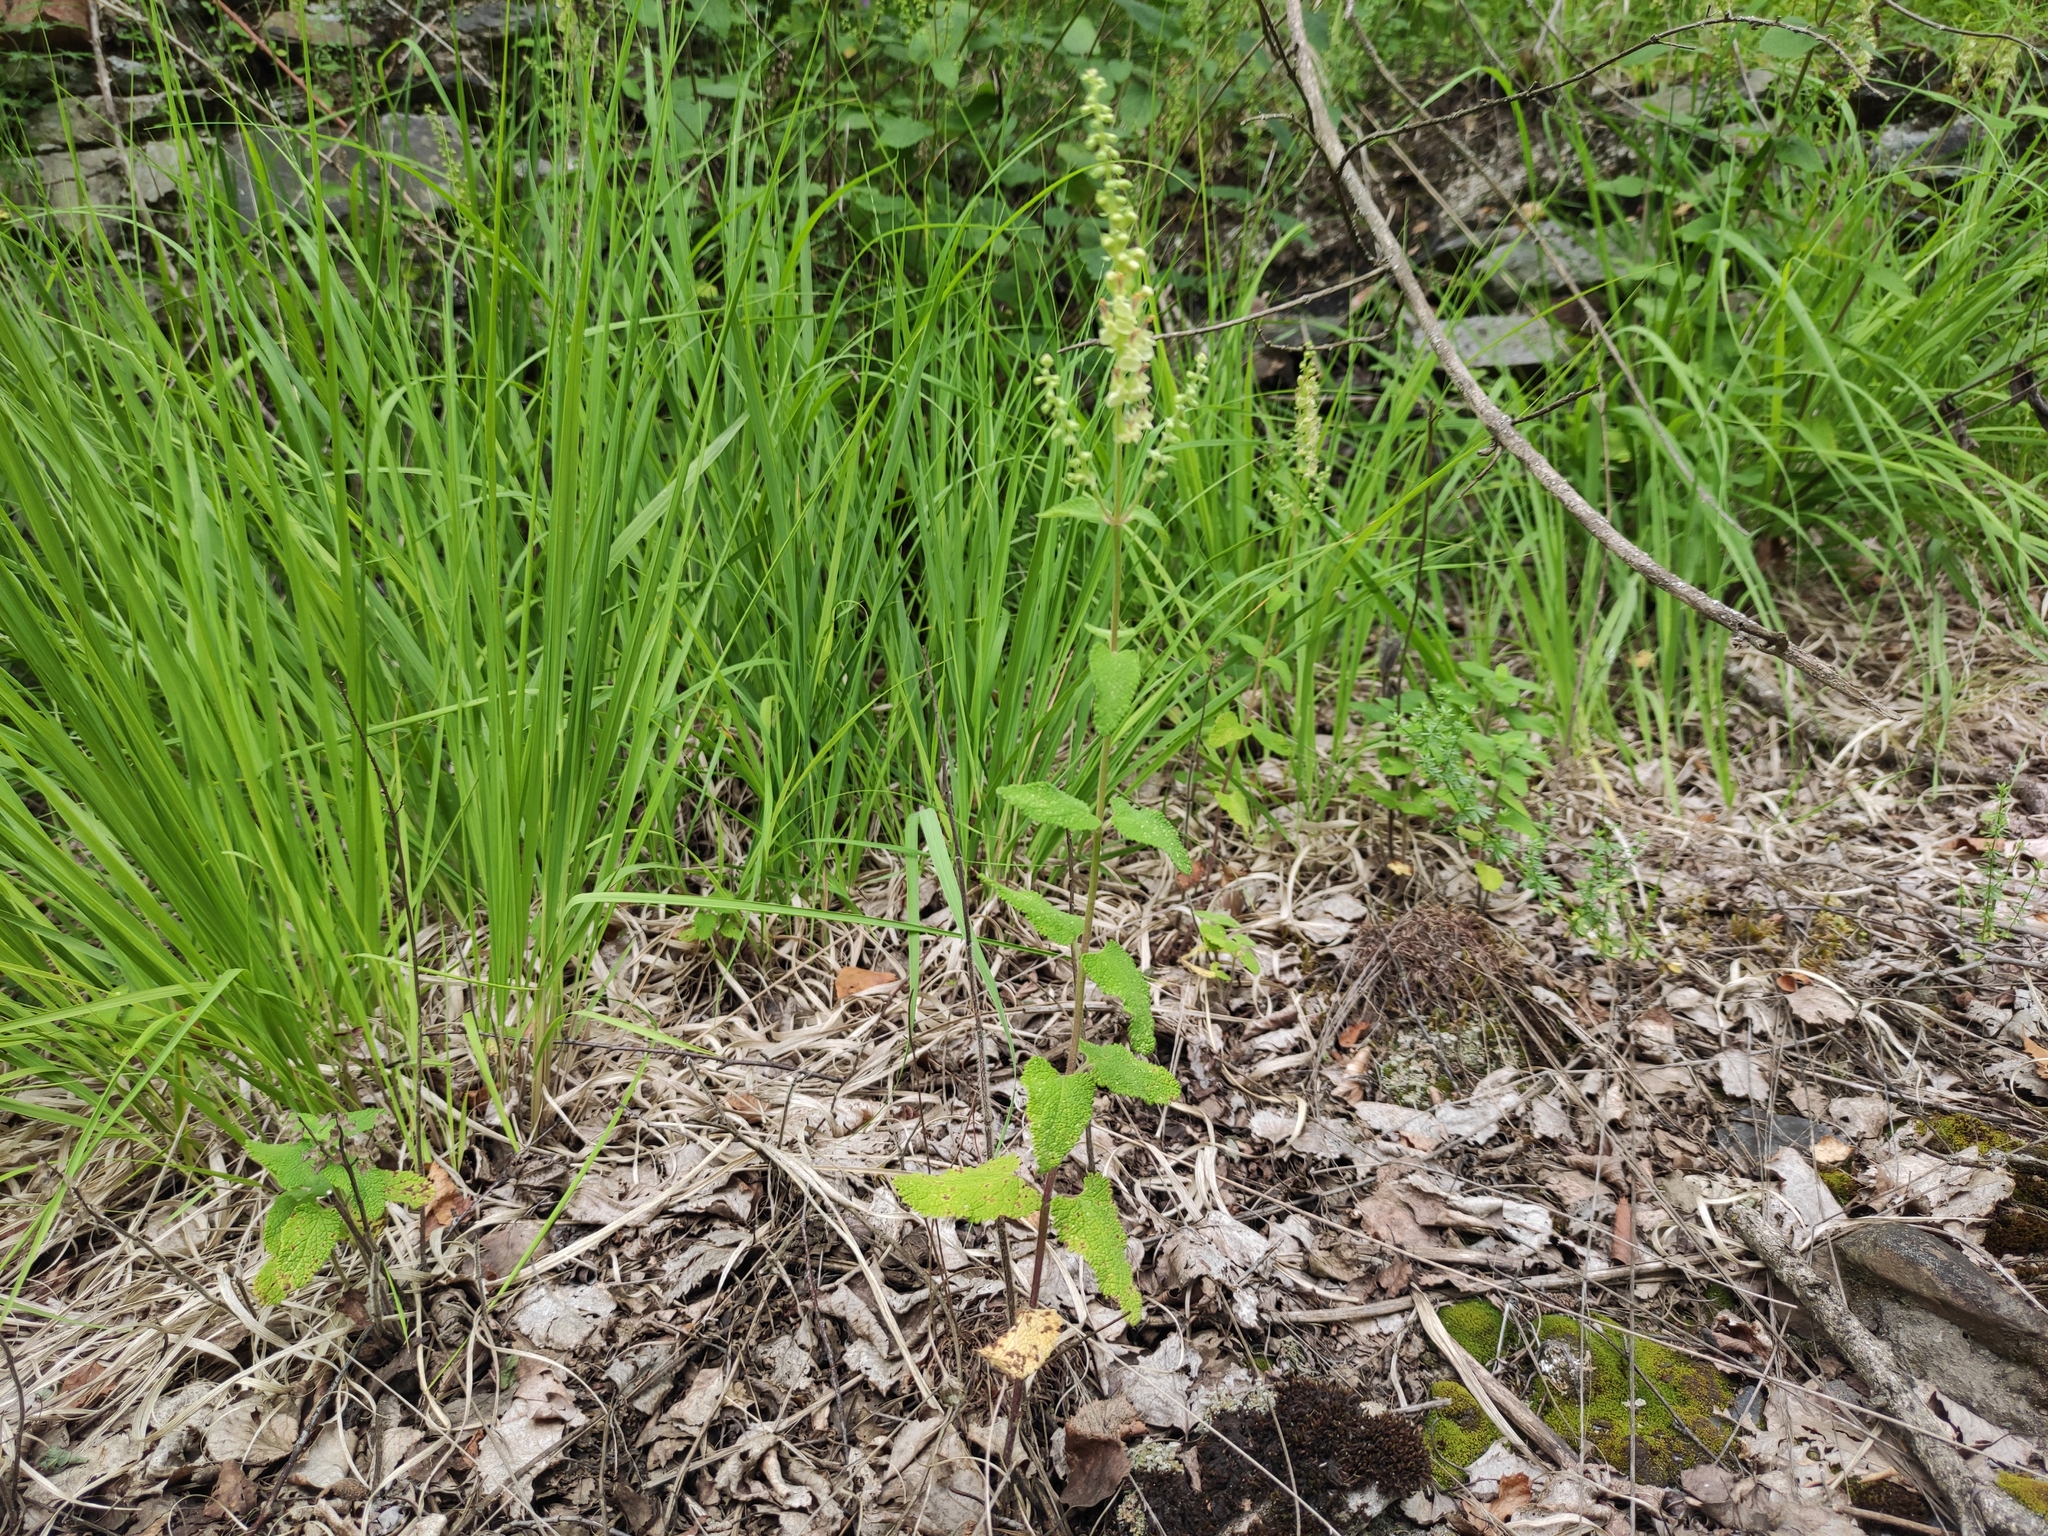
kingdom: Plantae
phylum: Tracheophyta
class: Magnoliopsida
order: Lamiales
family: Lamiaceae
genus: Teucrium
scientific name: Teucrium scorodonia
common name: Woodland germander
